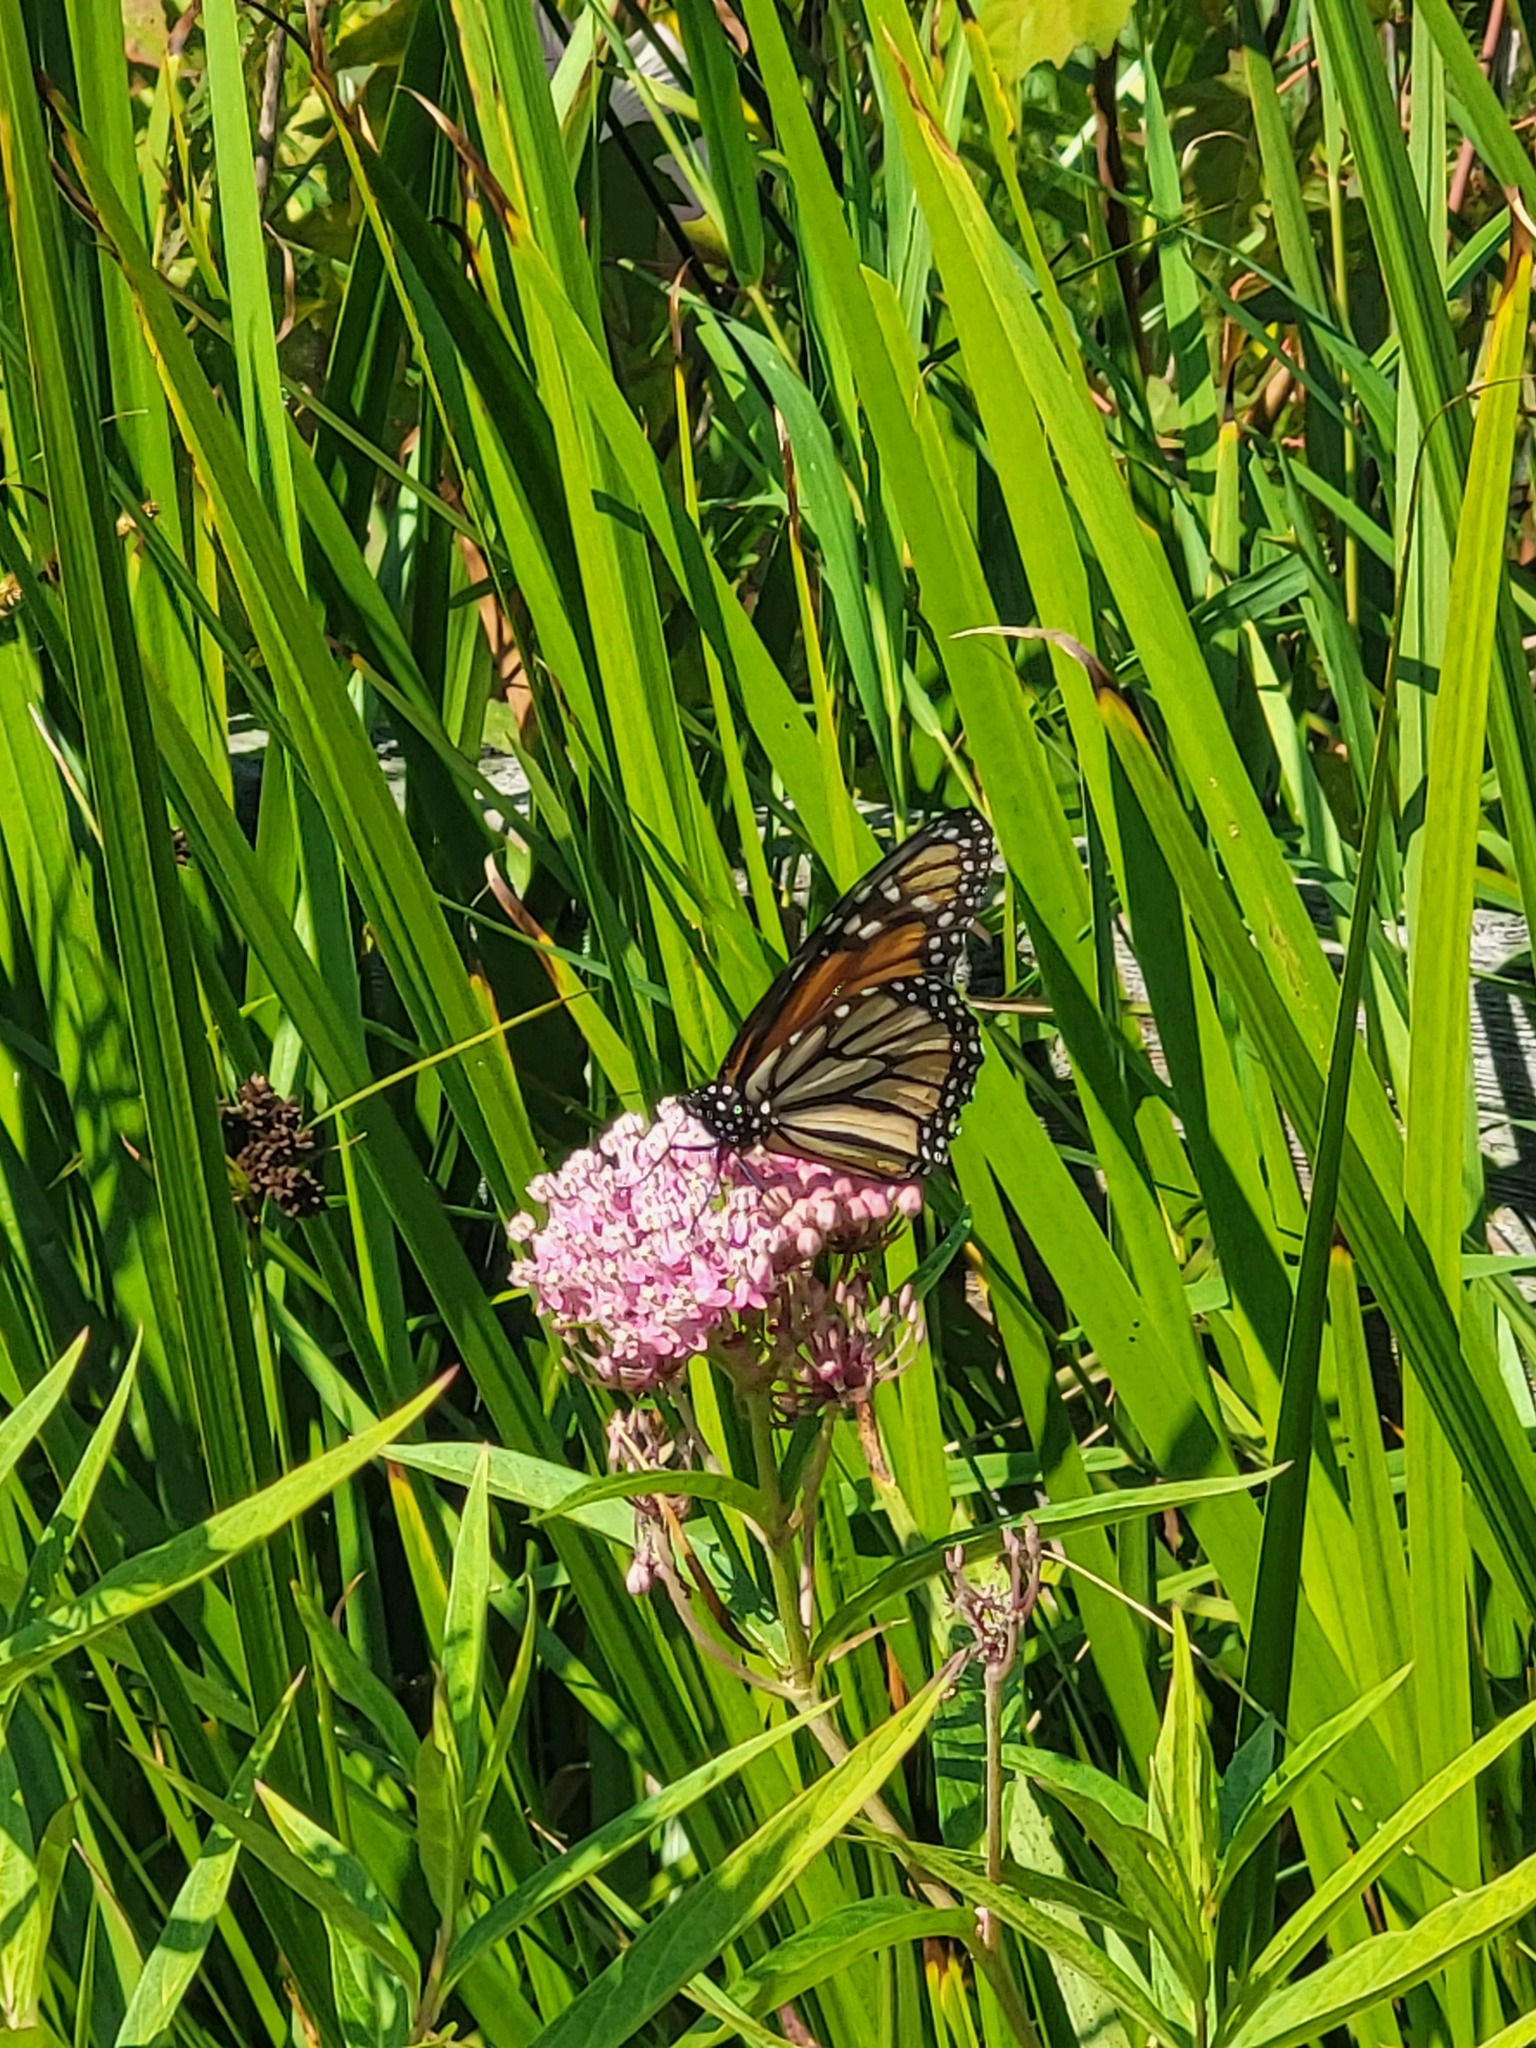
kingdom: Animalia
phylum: Arthropoda
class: Insecta
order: Lepidoptera
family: Nymphalidae
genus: Danaus
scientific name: Danaus plexippus
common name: Monarch
